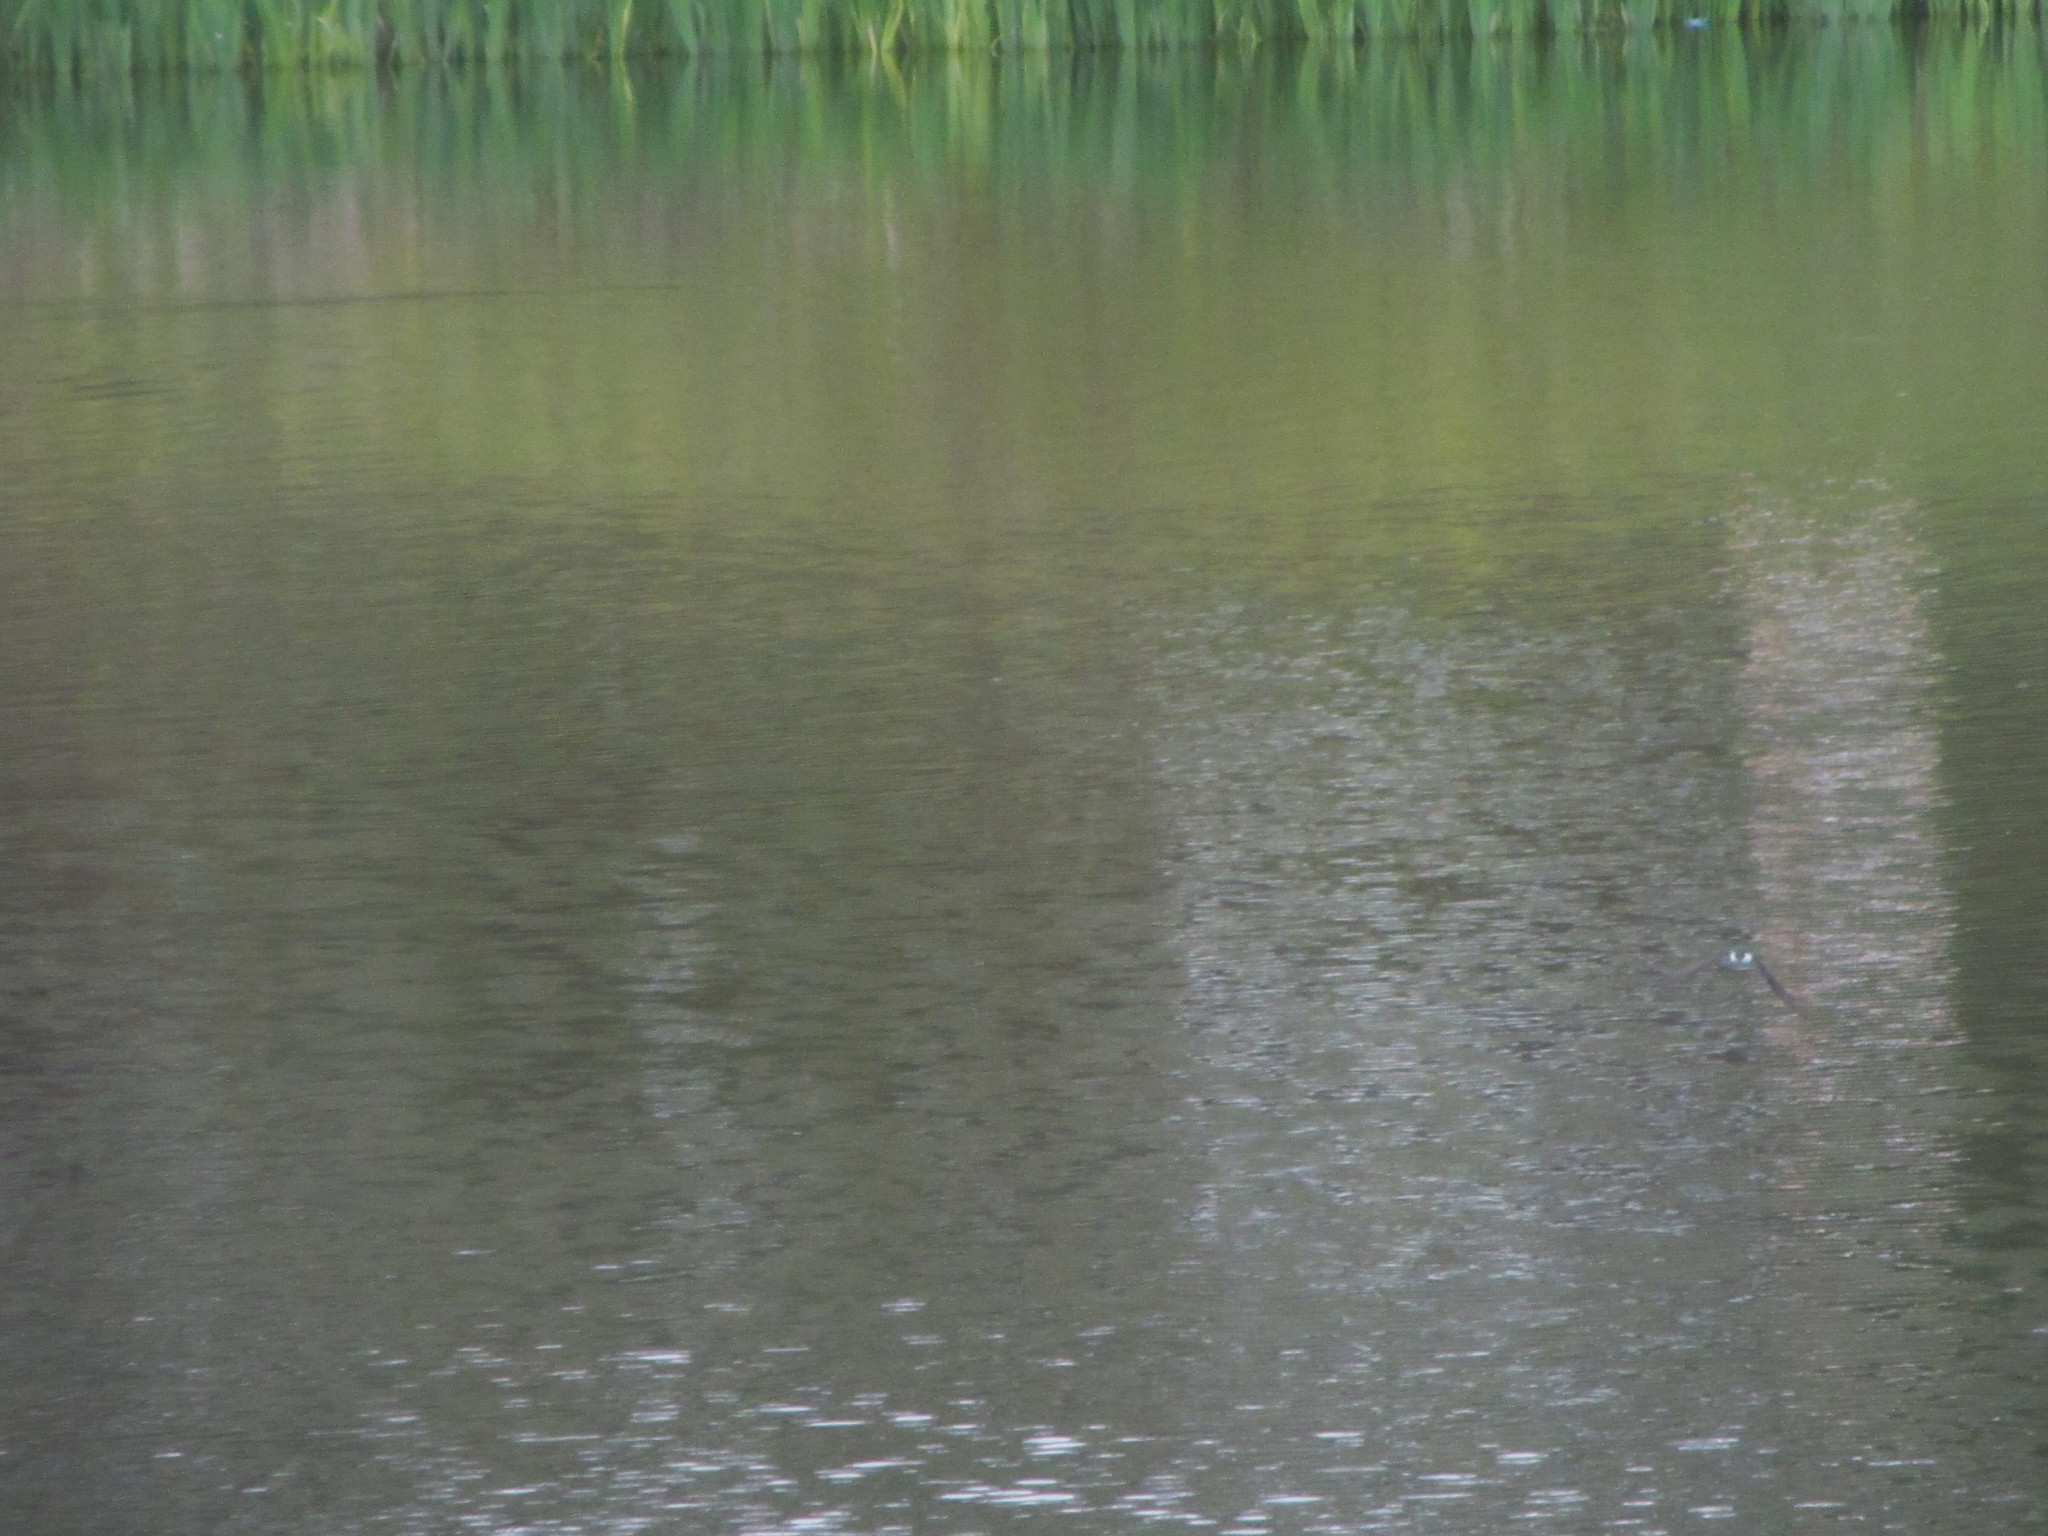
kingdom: Animalia
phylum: Chordata
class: Aves
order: Passeriformes
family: Hirundinidae
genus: Tachycineta
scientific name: Tachycineta thalassina
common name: Violet-green swallow
